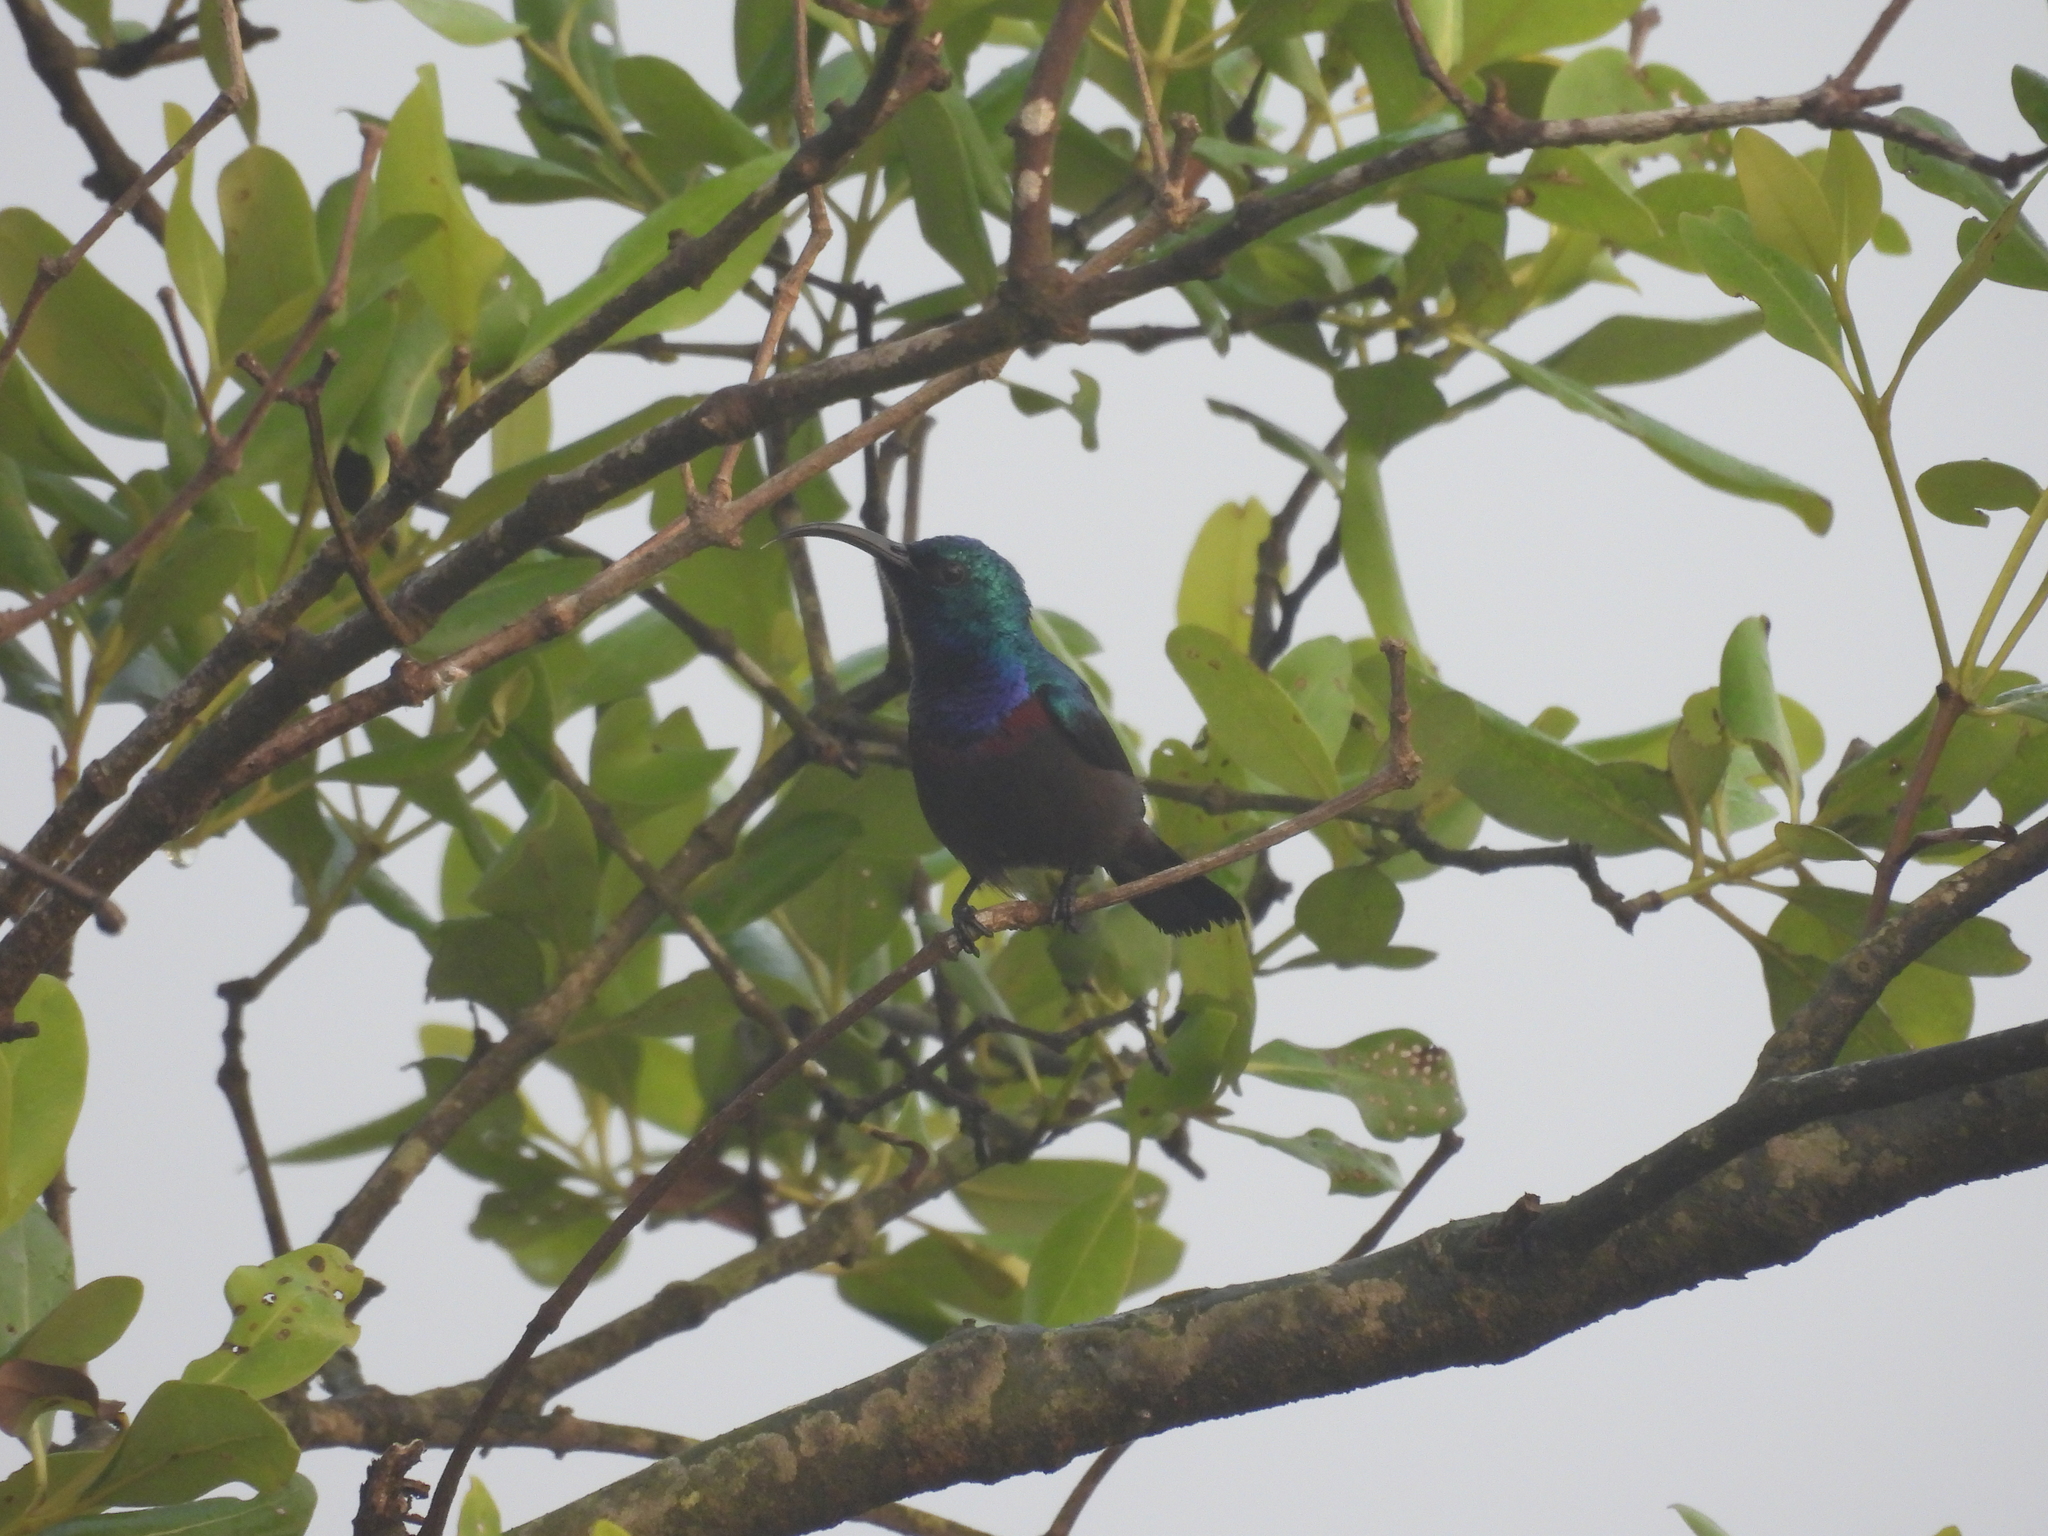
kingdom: Animalia
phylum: Chordata
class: Aves
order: Passeriformes
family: Nectariniidae
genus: Cinnyris
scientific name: Cinnyris lotenius
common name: Loten's sunbird
